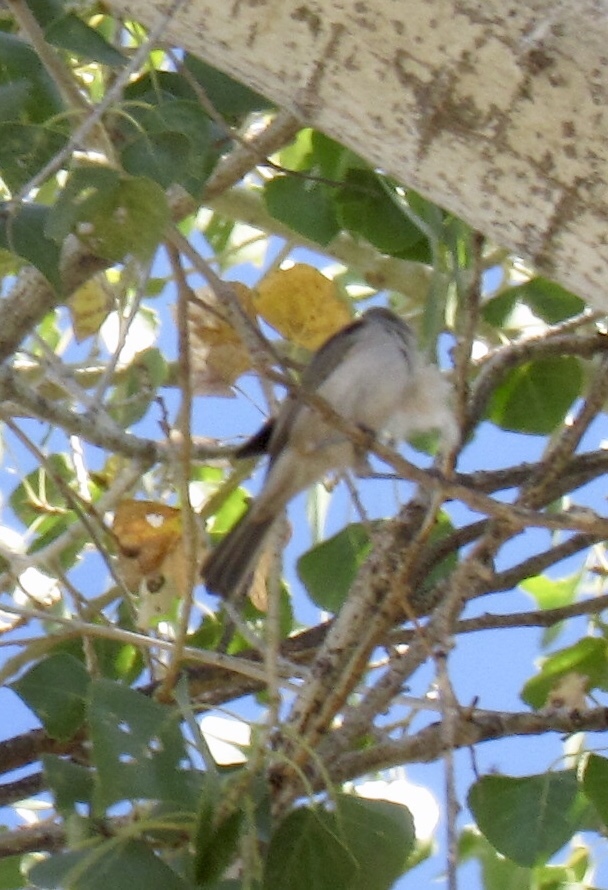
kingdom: Animalia
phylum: Chordata
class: Aves
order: Passeriformes
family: Remizidae
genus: Auriparus
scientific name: Auriparus flaviceps
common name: Verdin
